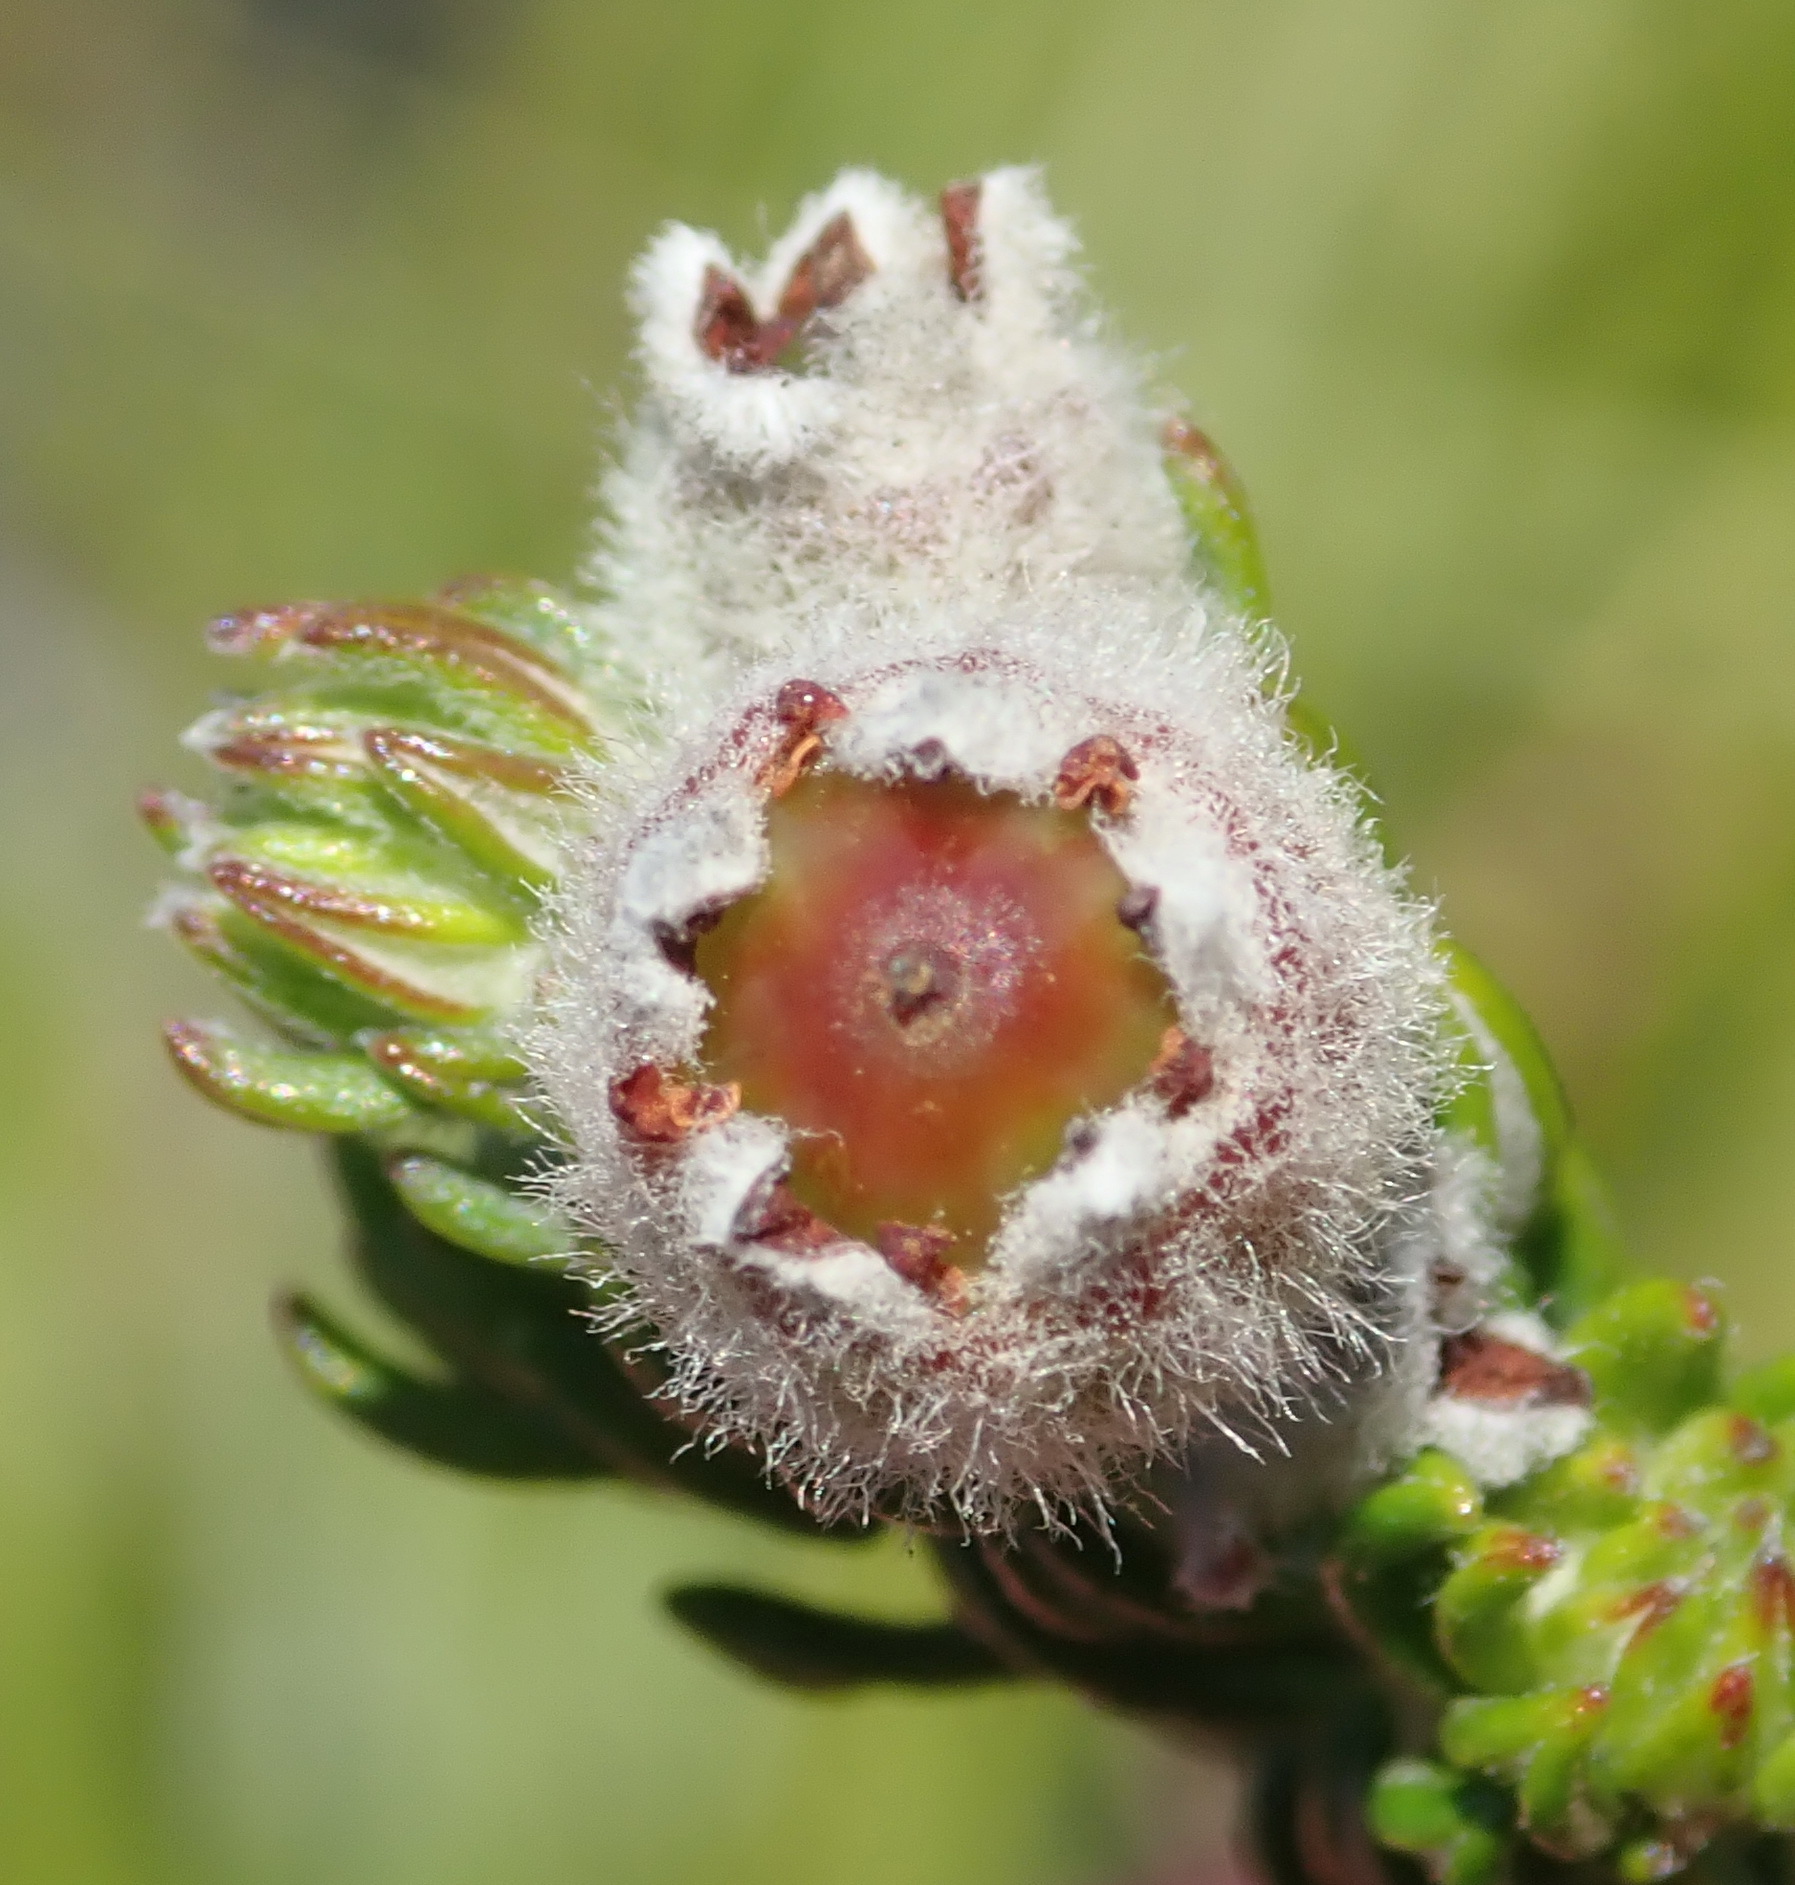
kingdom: Plantae
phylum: Tracheophyta
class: Magnoliopsida
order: Rosales
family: Rhamnaceae
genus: Phylica
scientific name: Phylica purpurea
